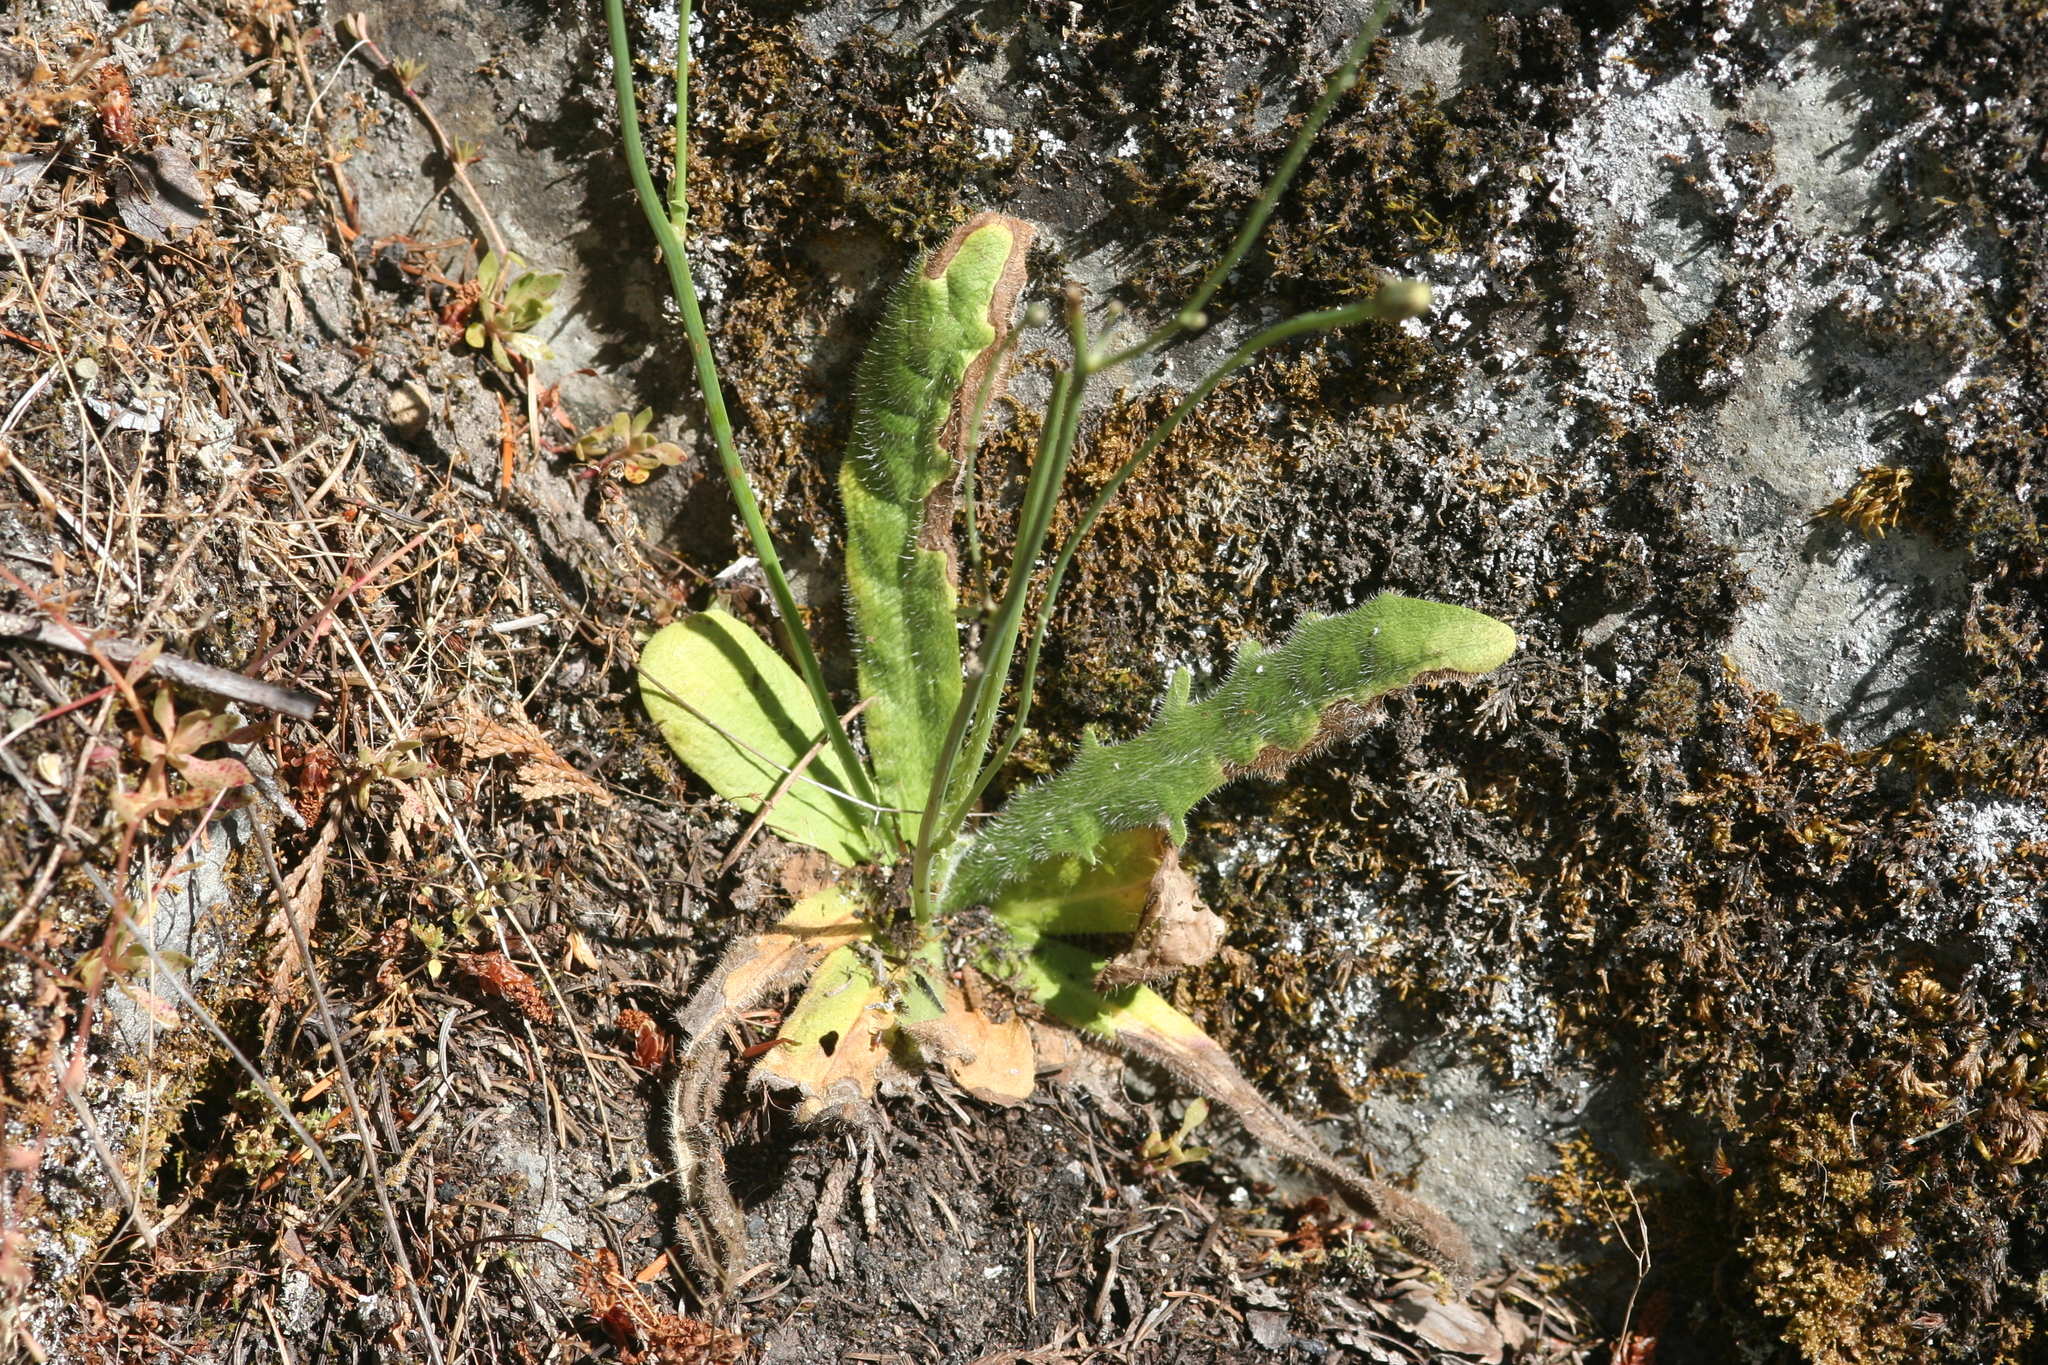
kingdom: Plantae
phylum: Tracheophyta
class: Magnoliopsida
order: Asterales
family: Asteraceae
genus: Hypochaeris
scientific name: Hypochaeris radicata
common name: Flatweed
